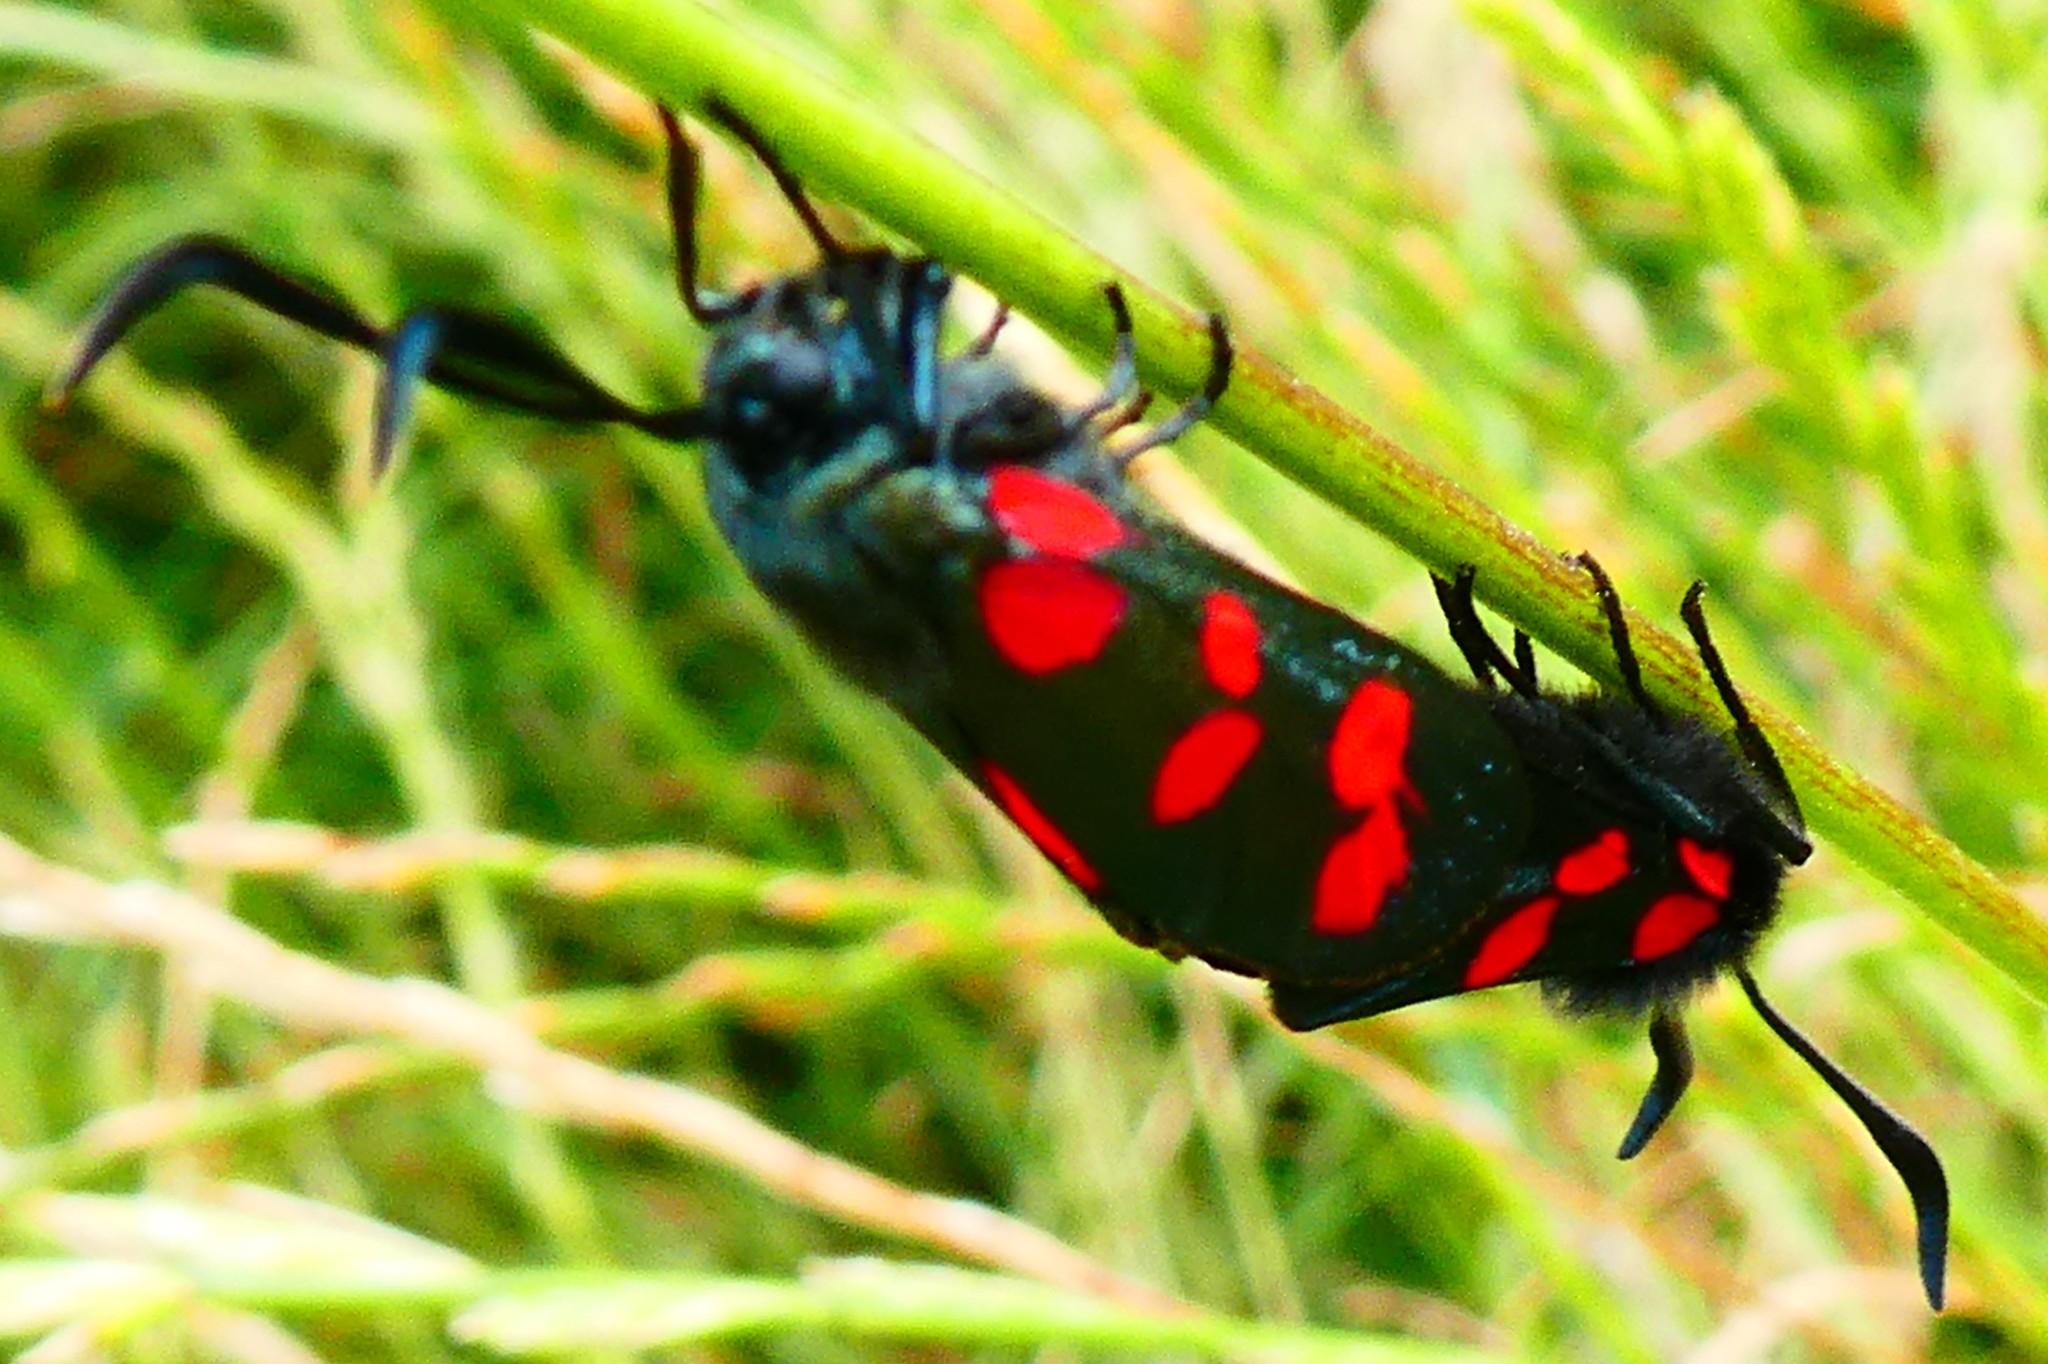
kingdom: Animalia
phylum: Arthropoda
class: Insecta
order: Lepidoptera
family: Zygaenidae
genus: Zygaena
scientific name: Zygaena filipendulae
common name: Six-spot burnet
